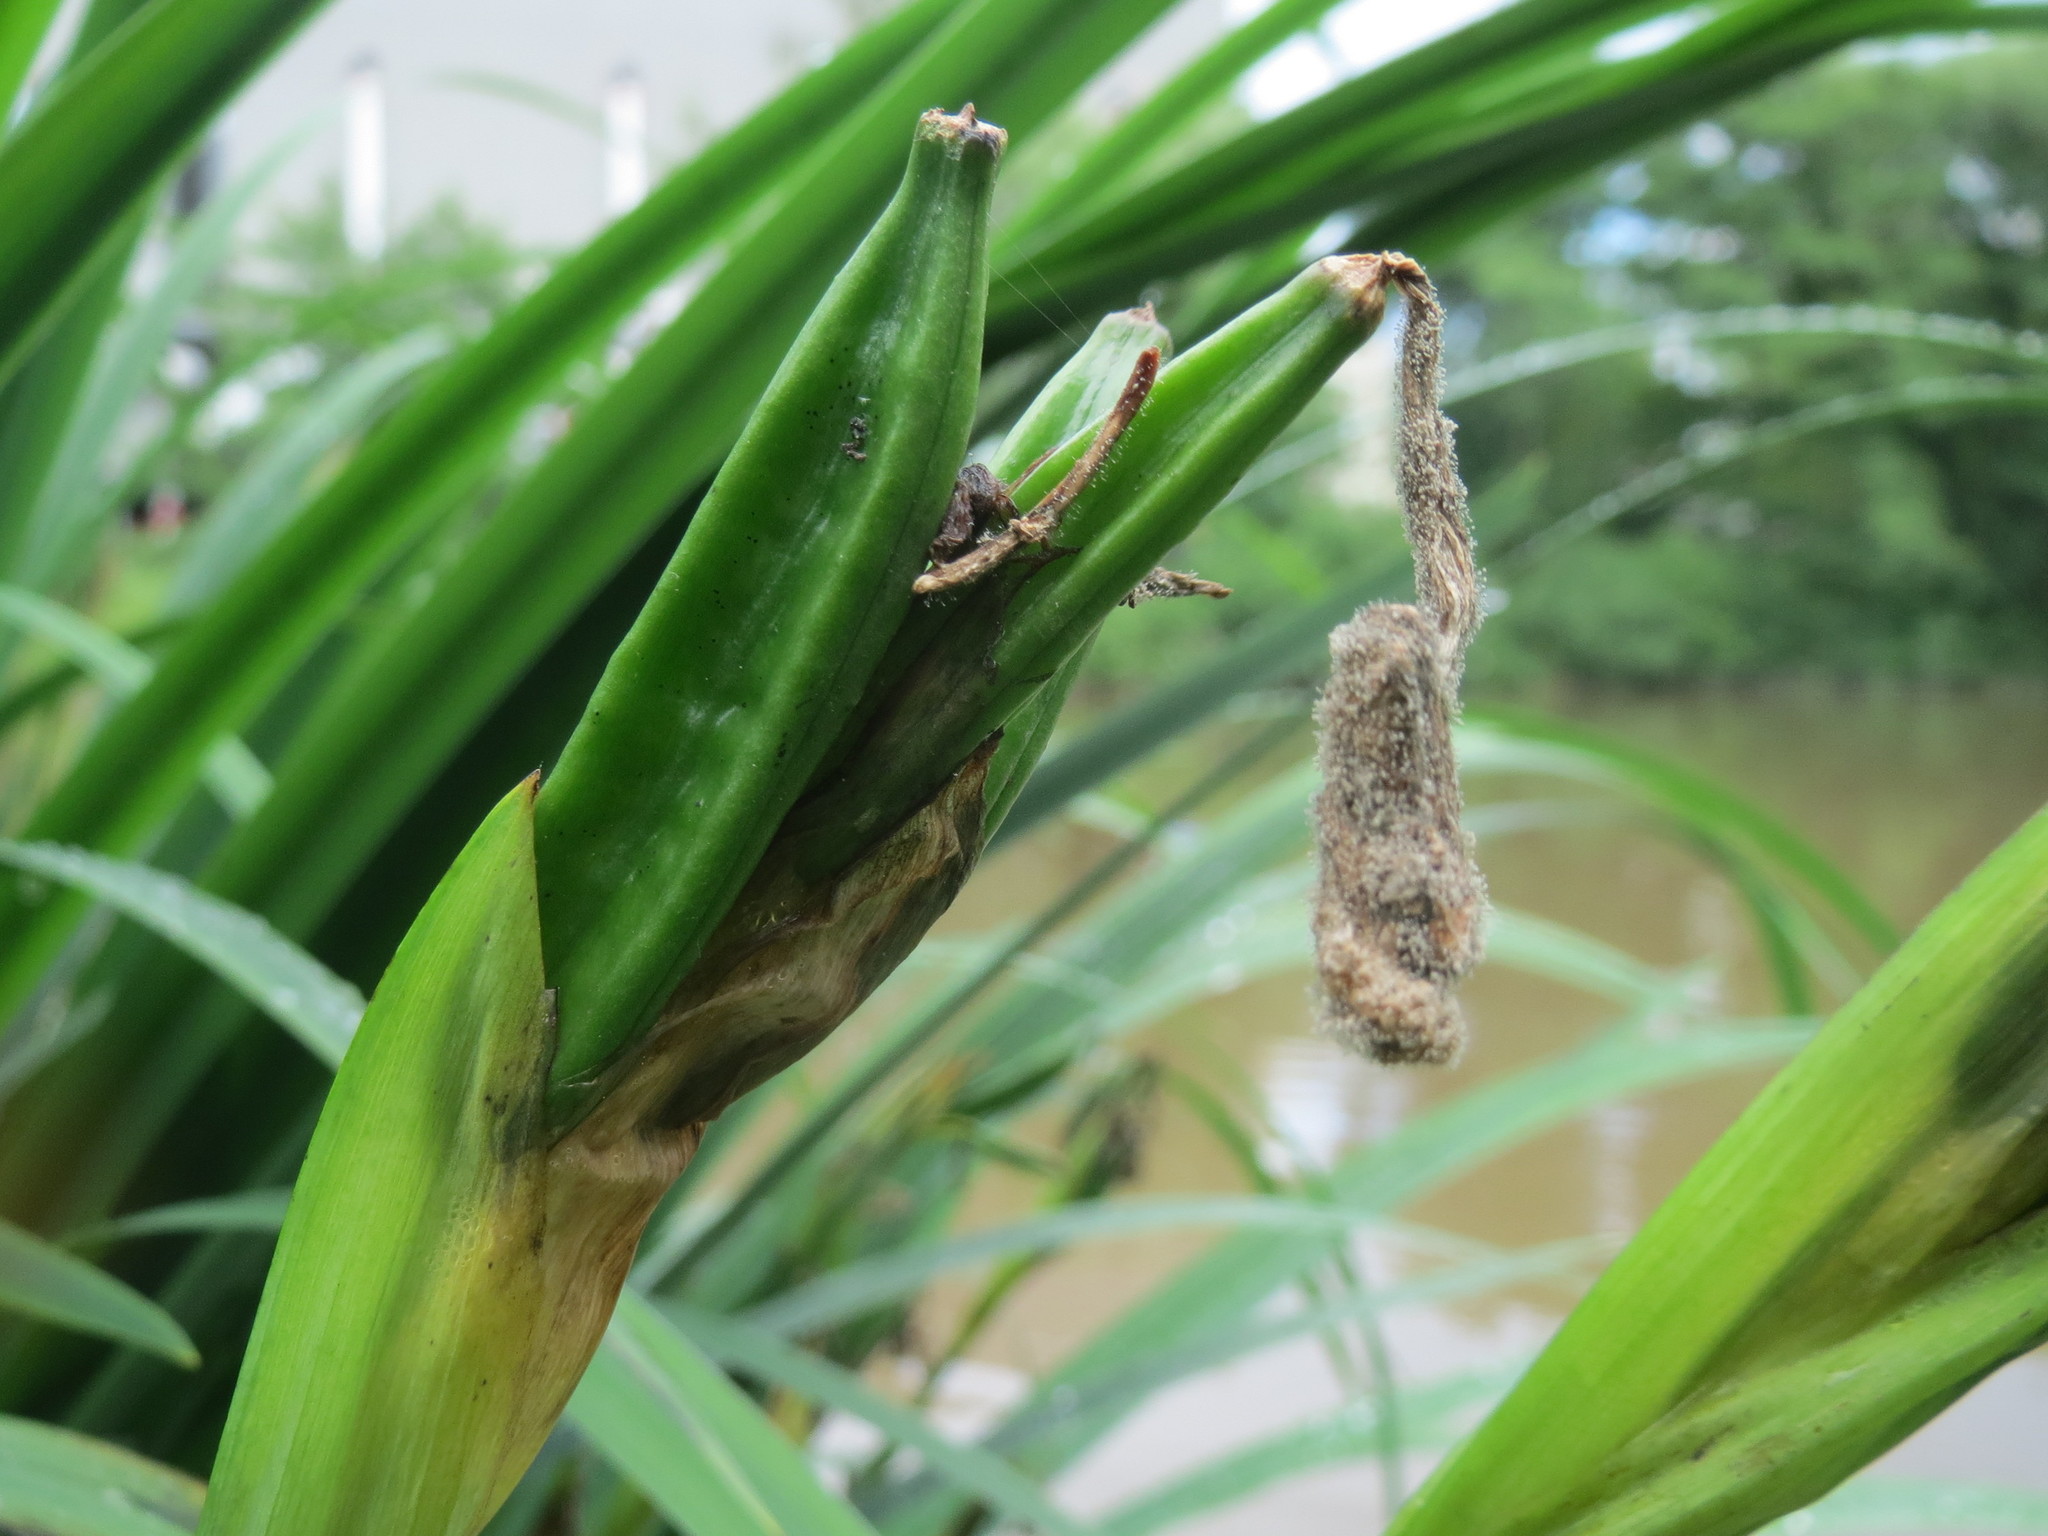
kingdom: Plantae
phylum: Tracheophyta
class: Liliopsida
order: Asparagales
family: Iridaceae
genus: Iris
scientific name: Iris pseudacorus
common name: Yellow flag
